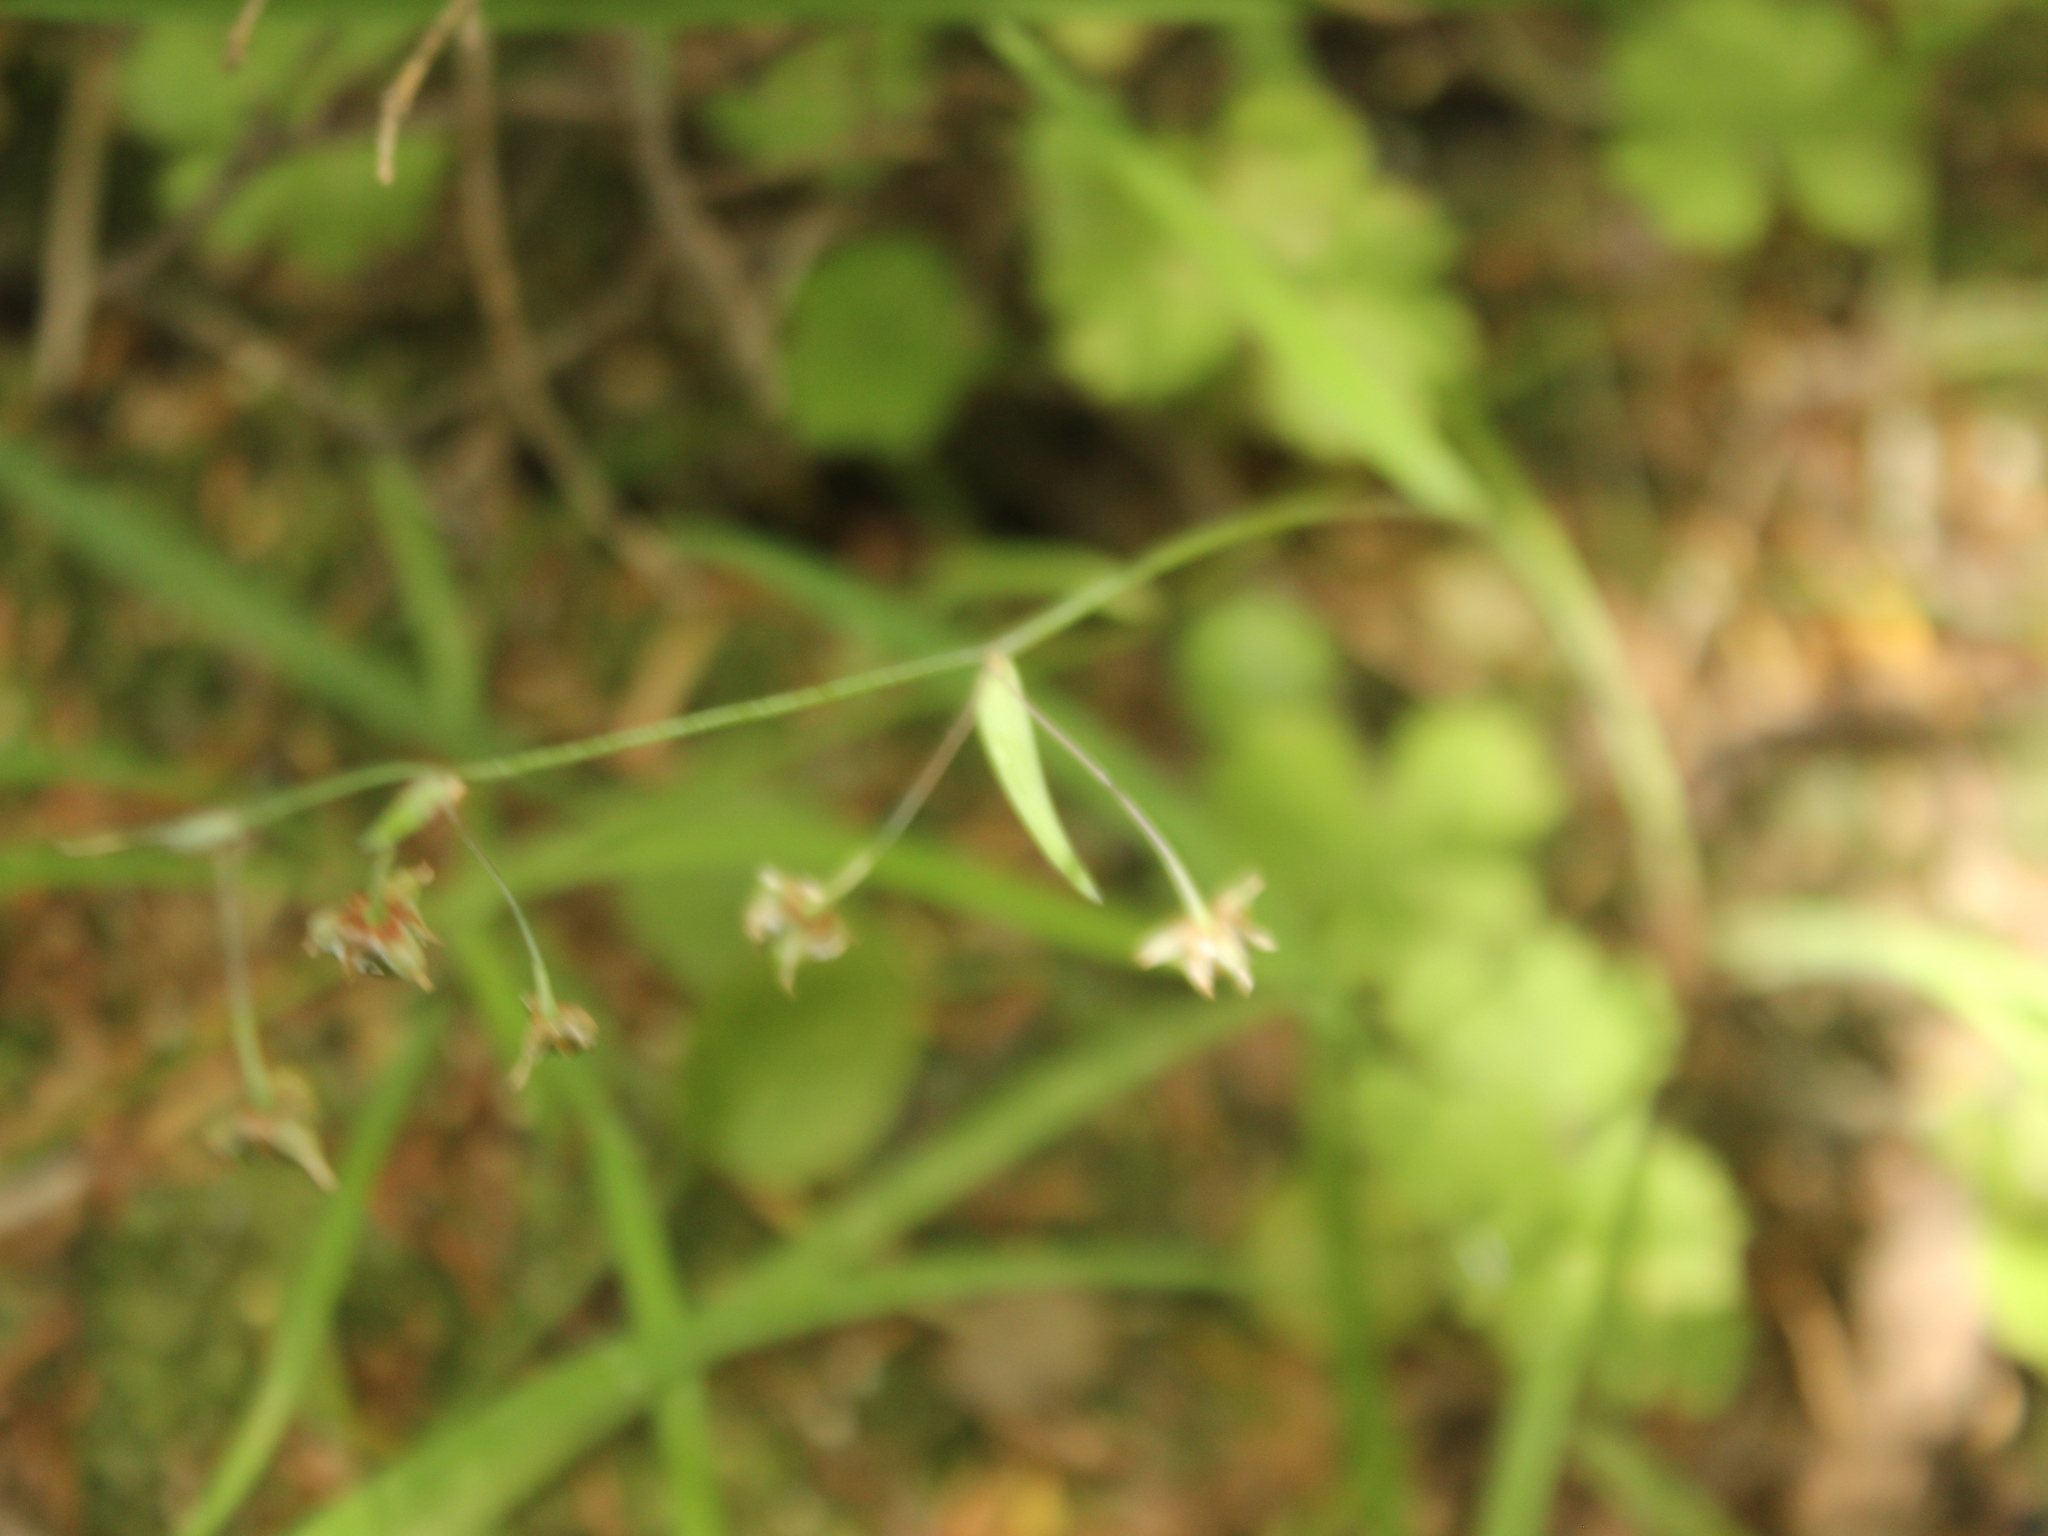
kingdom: Plantae
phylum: Tracheophyta
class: Liliopsida
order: Asparagales
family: Asparagaceae
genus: Arthropodium
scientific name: Arthropodium candidum
